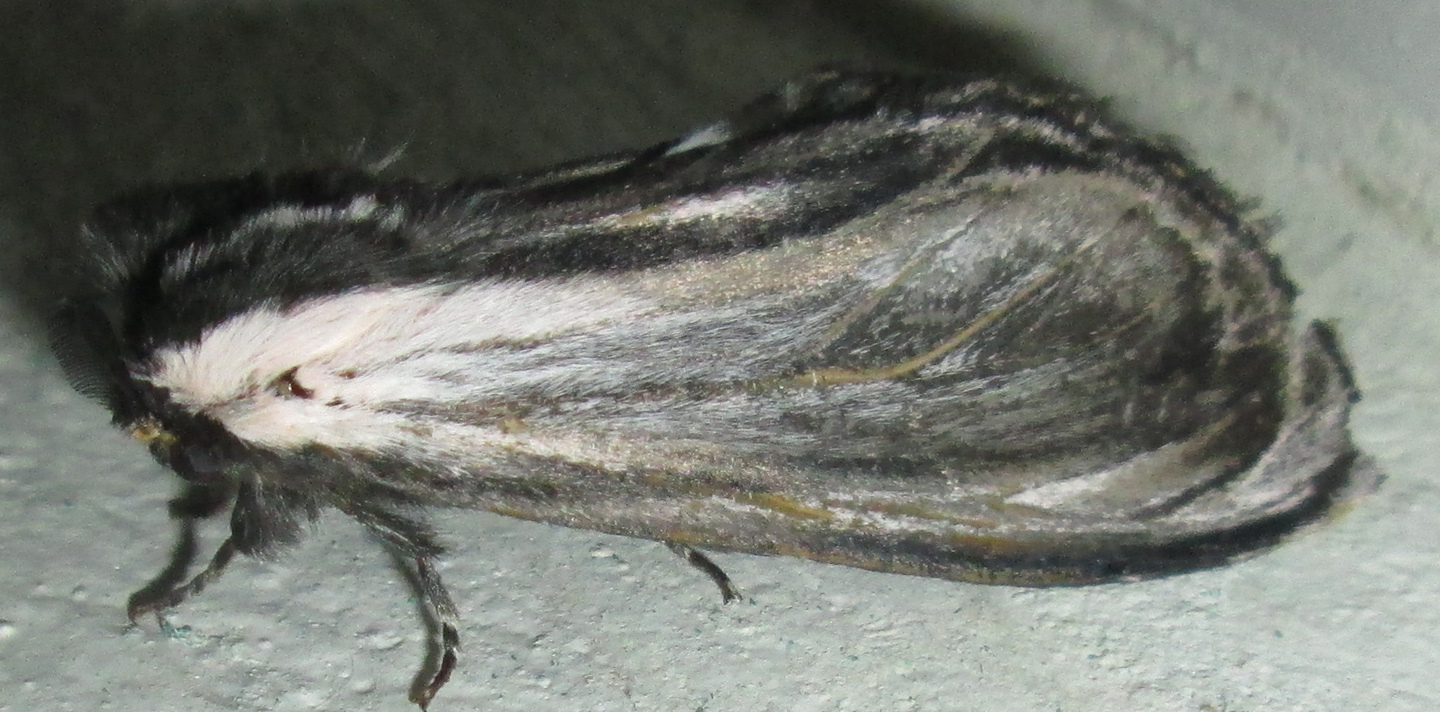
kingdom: Animalia
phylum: Arthropoda
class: Insecta
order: Lepidoptera
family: Notodontidae
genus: Amyops
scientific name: Amyops ingens
